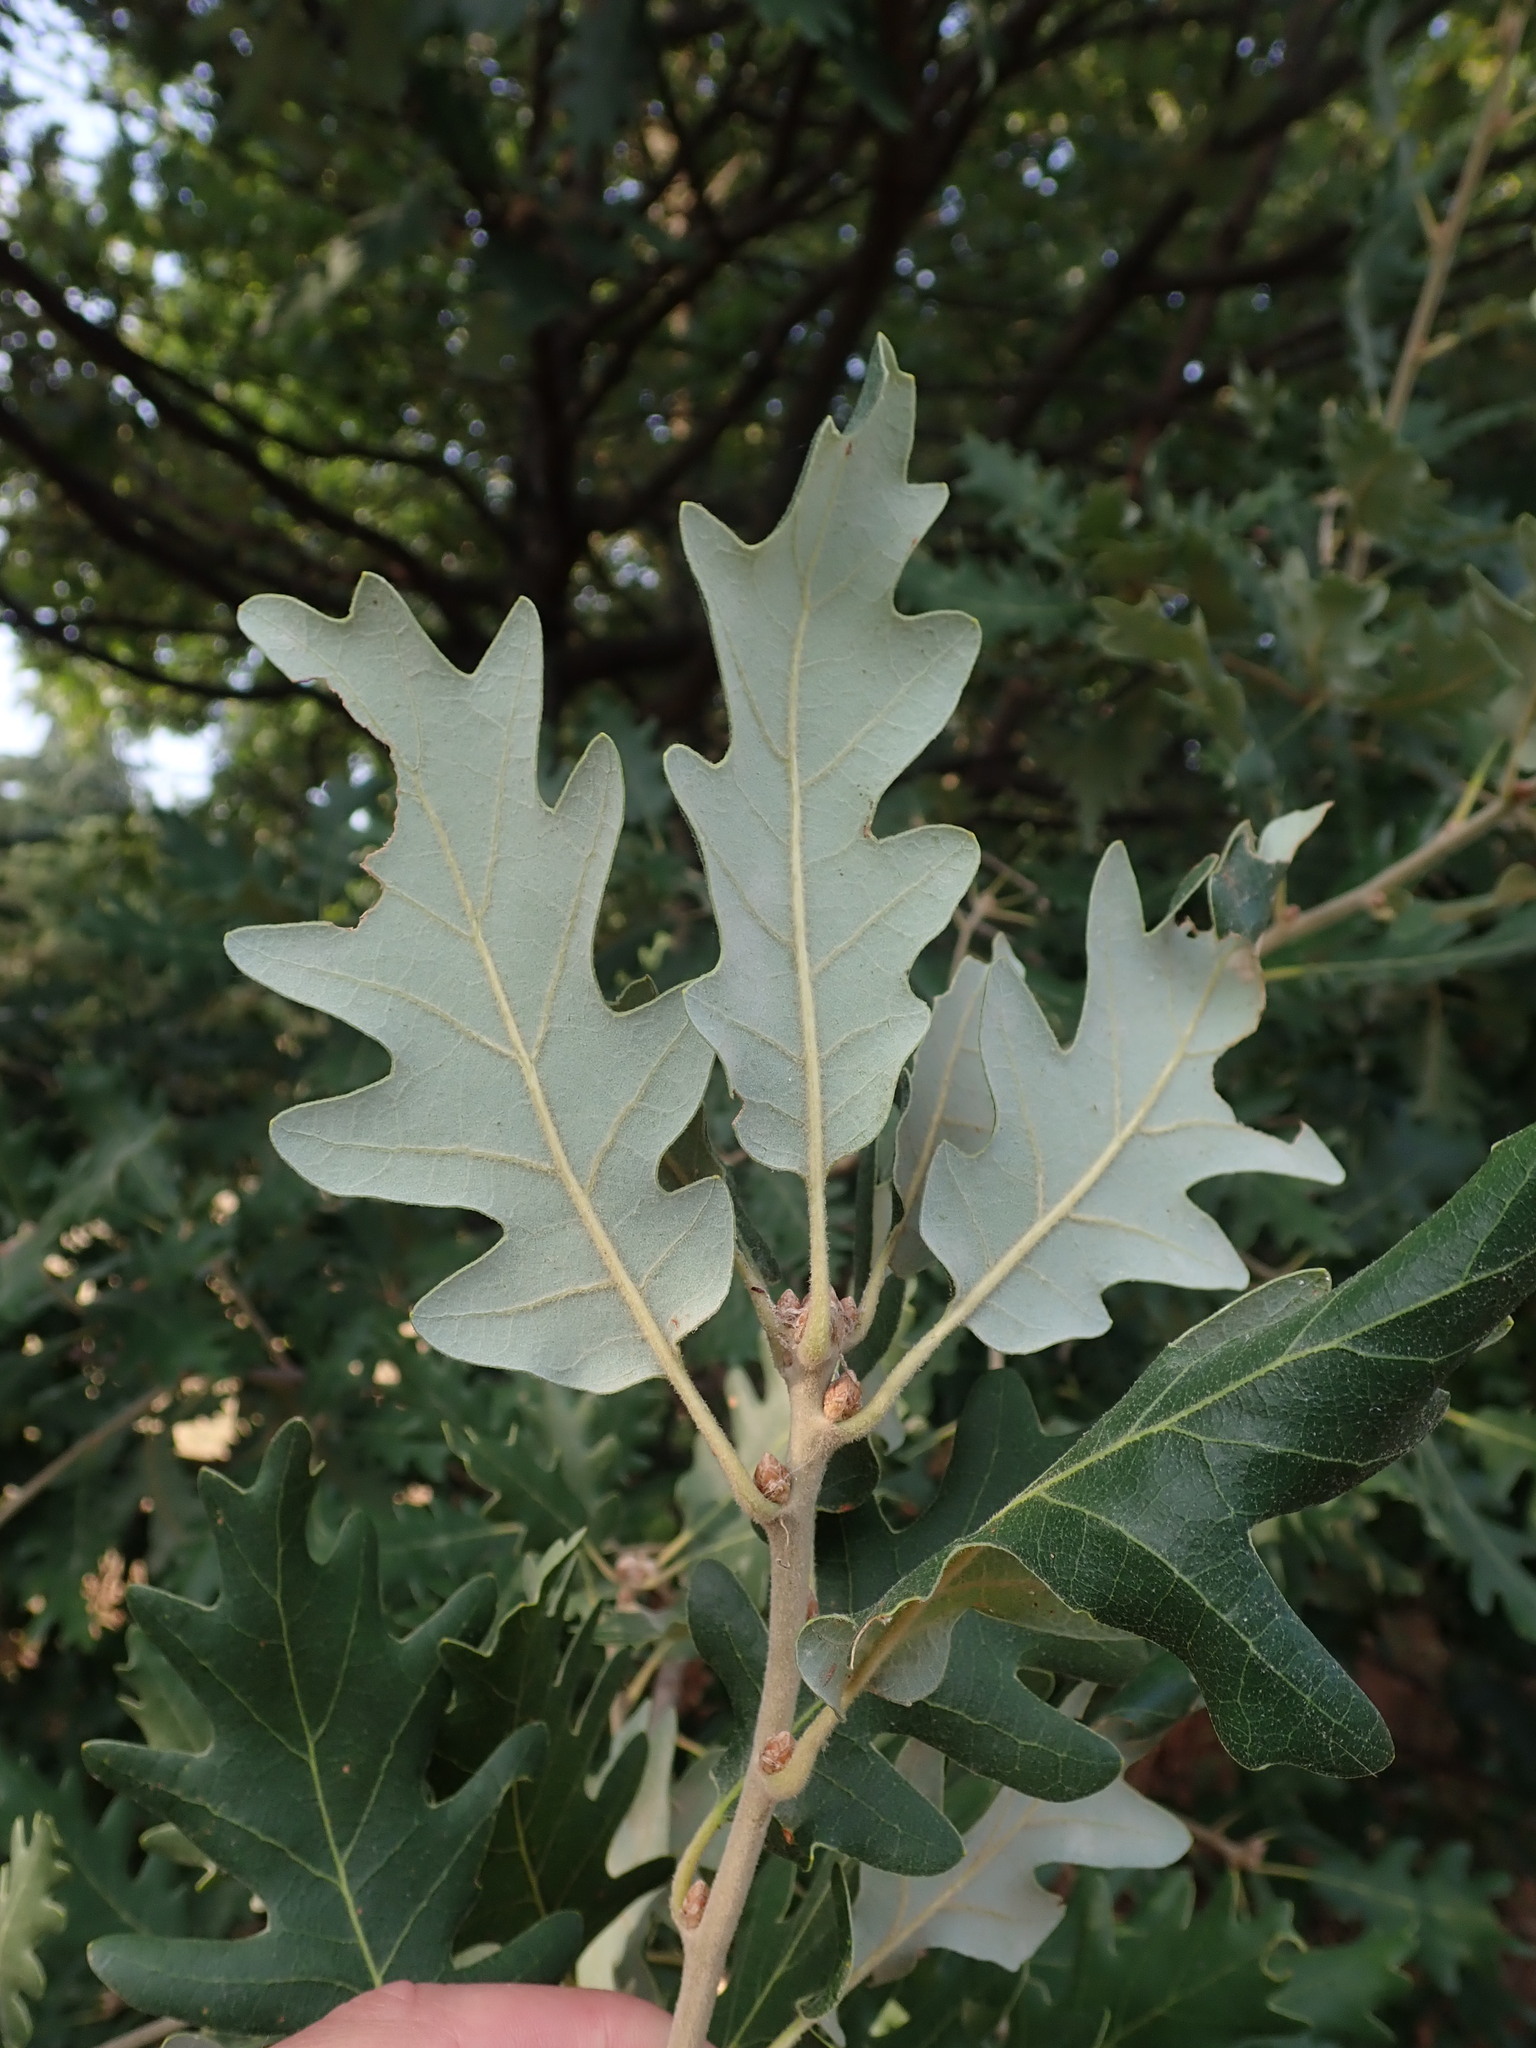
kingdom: Plantae
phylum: Tracheophyta
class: Magnoliopsida
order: Fagales
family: Fagaceae
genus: Quercus
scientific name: Quercus pubescens
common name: Downy oak
